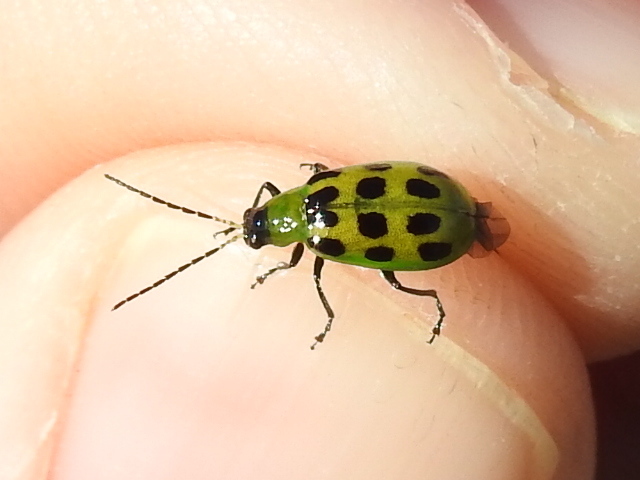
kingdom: Animalia
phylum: Arthropoda
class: Insecta
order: Coleoptera
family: Chrysomelidae
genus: Diabrotica
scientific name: Diabrotica undecimpunctata
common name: Spotted cucumber beetle
